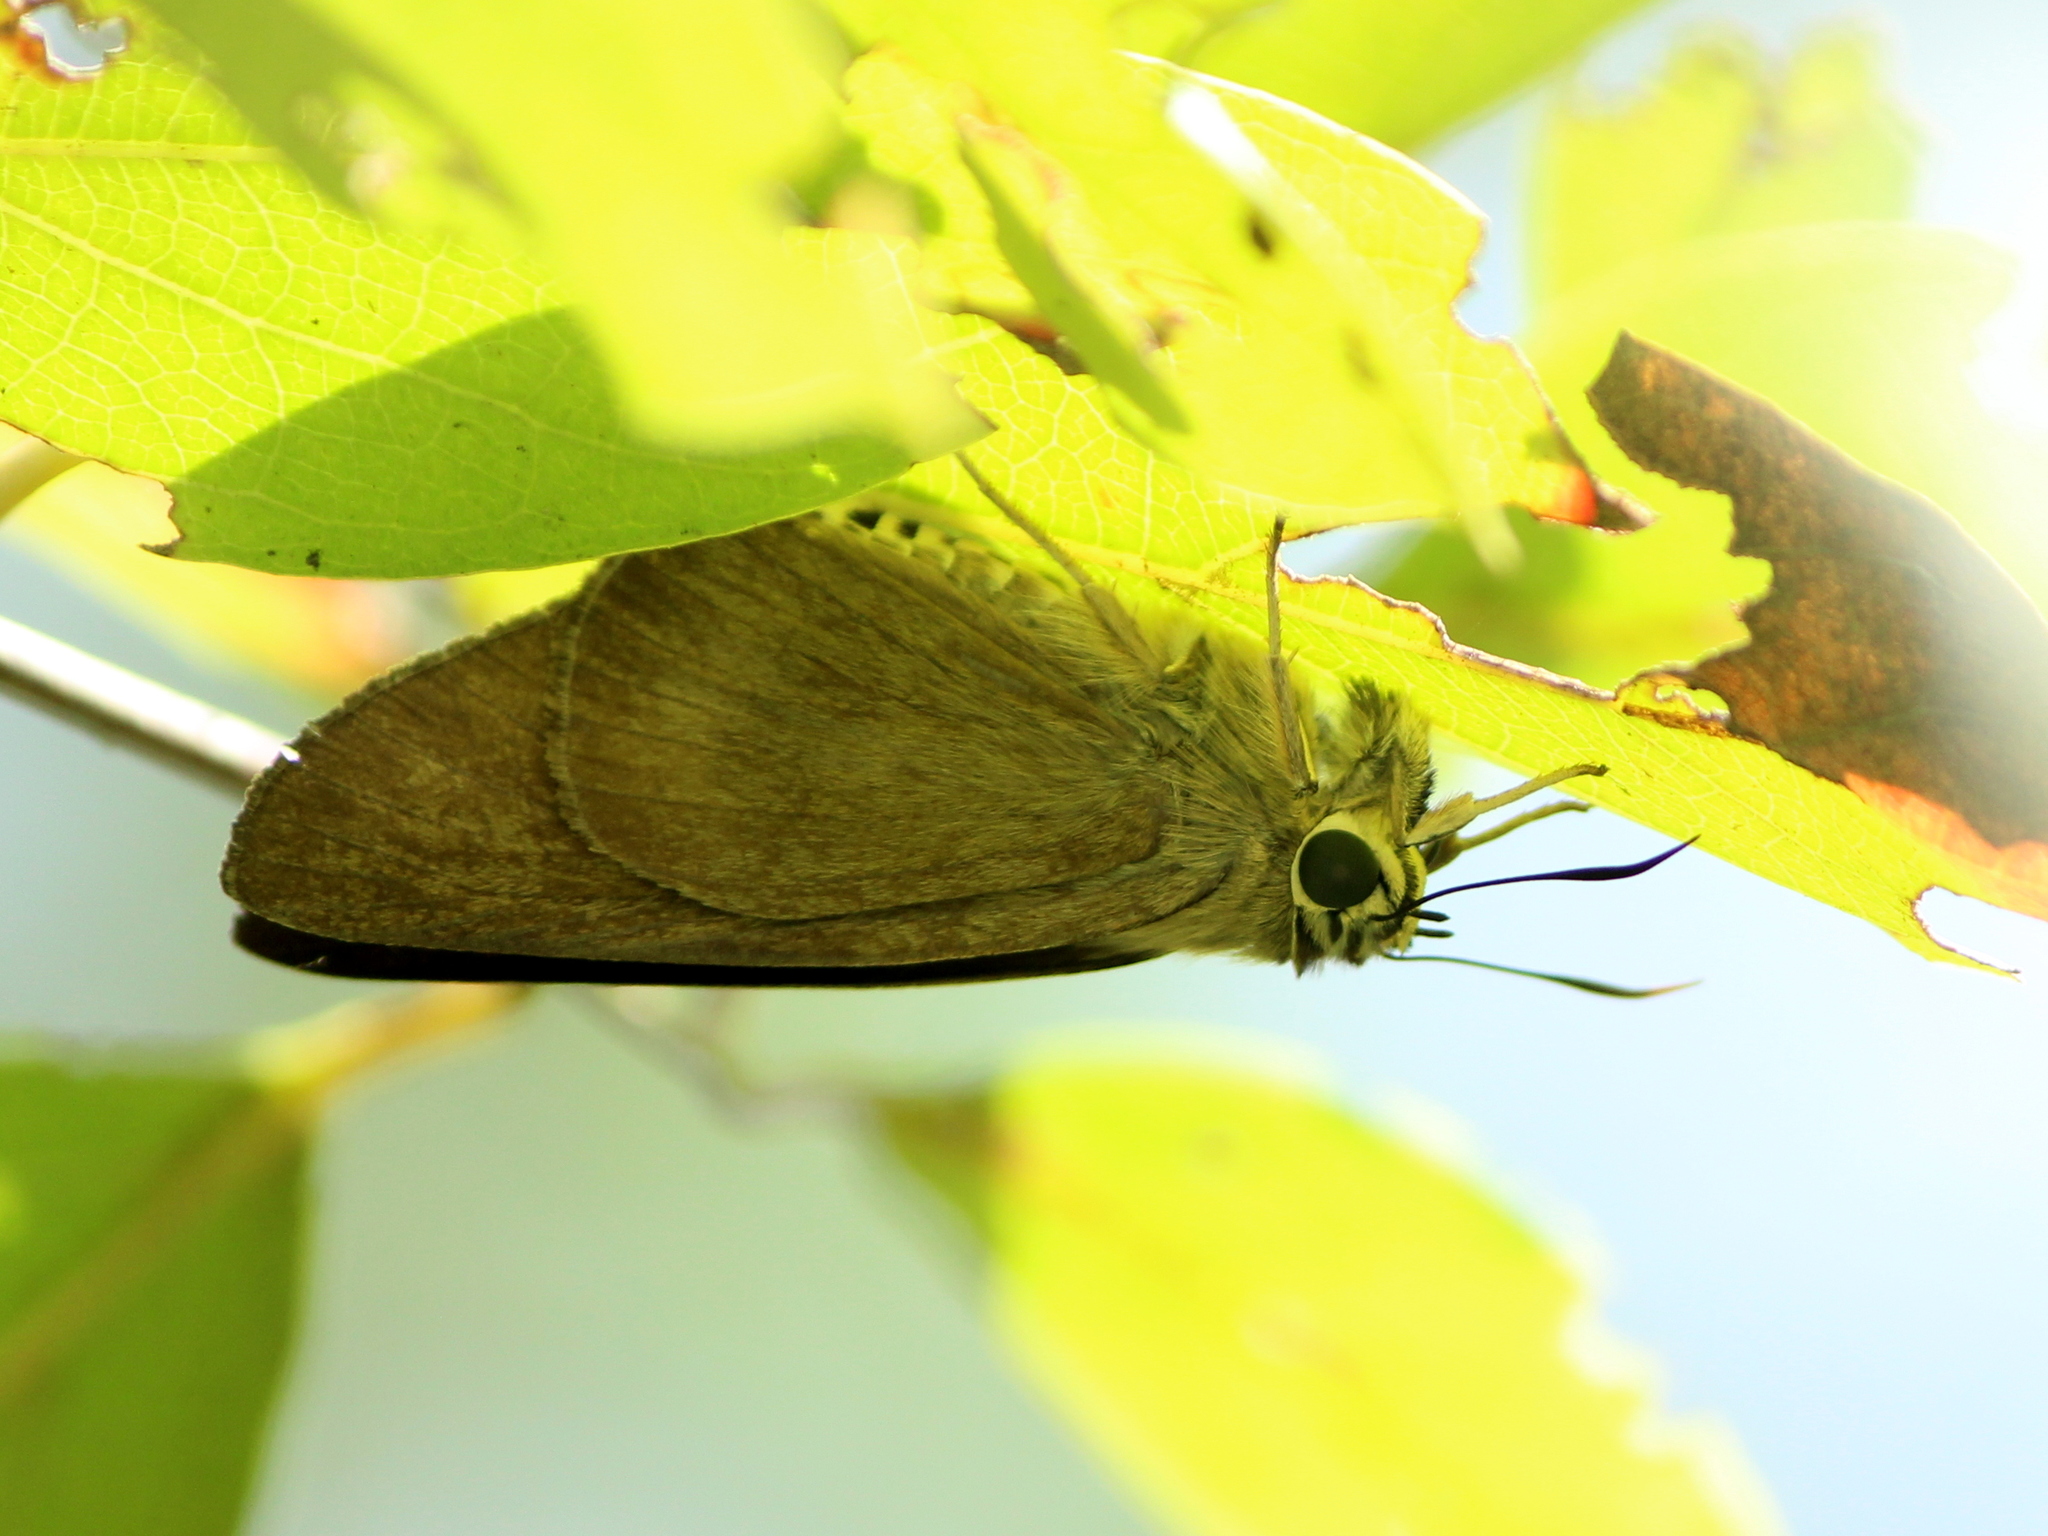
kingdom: Animalia
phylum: Arthropoda
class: Insecta
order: Lepidoptera
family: Hesperiidae
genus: Badamia
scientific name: Badamia exclamationis
